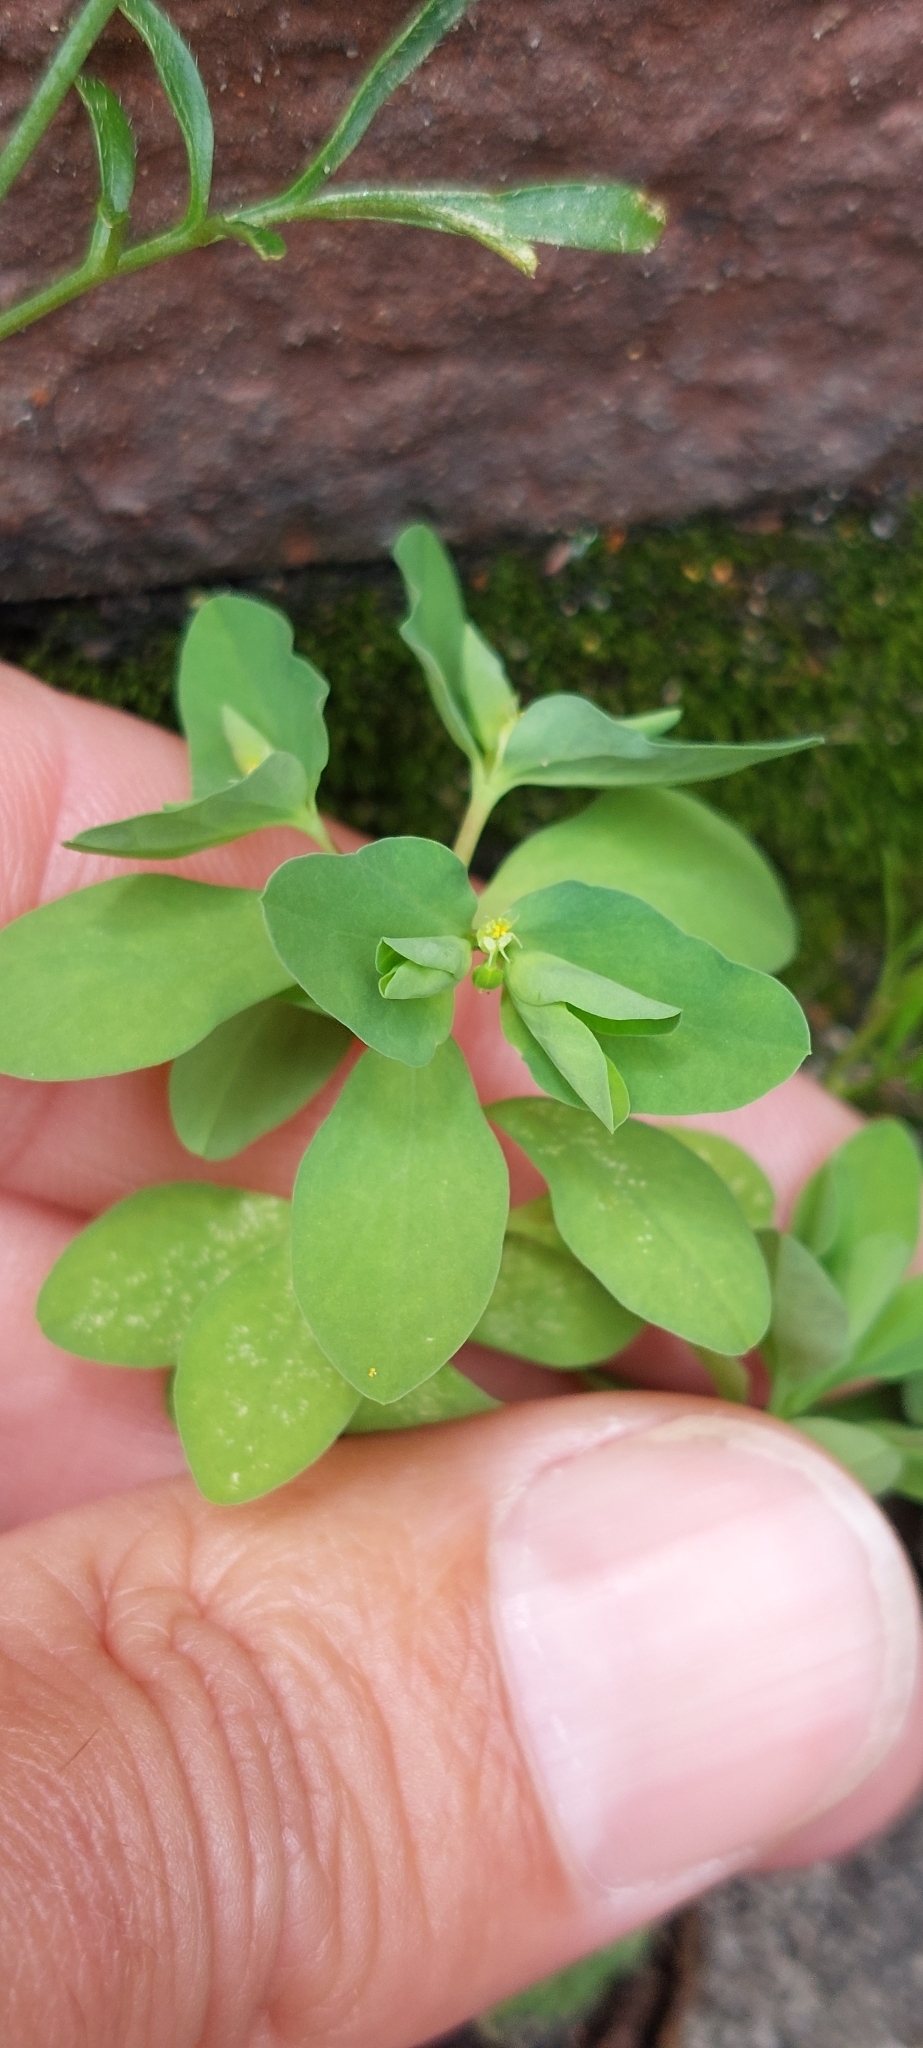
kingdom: Plantae
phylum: Tracheophyta
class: Magnoliopsida
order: Malpighiales
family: Euphorbiaceae
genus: Euphorbia
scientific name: Euphorbia peplus
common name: Petty spurge
